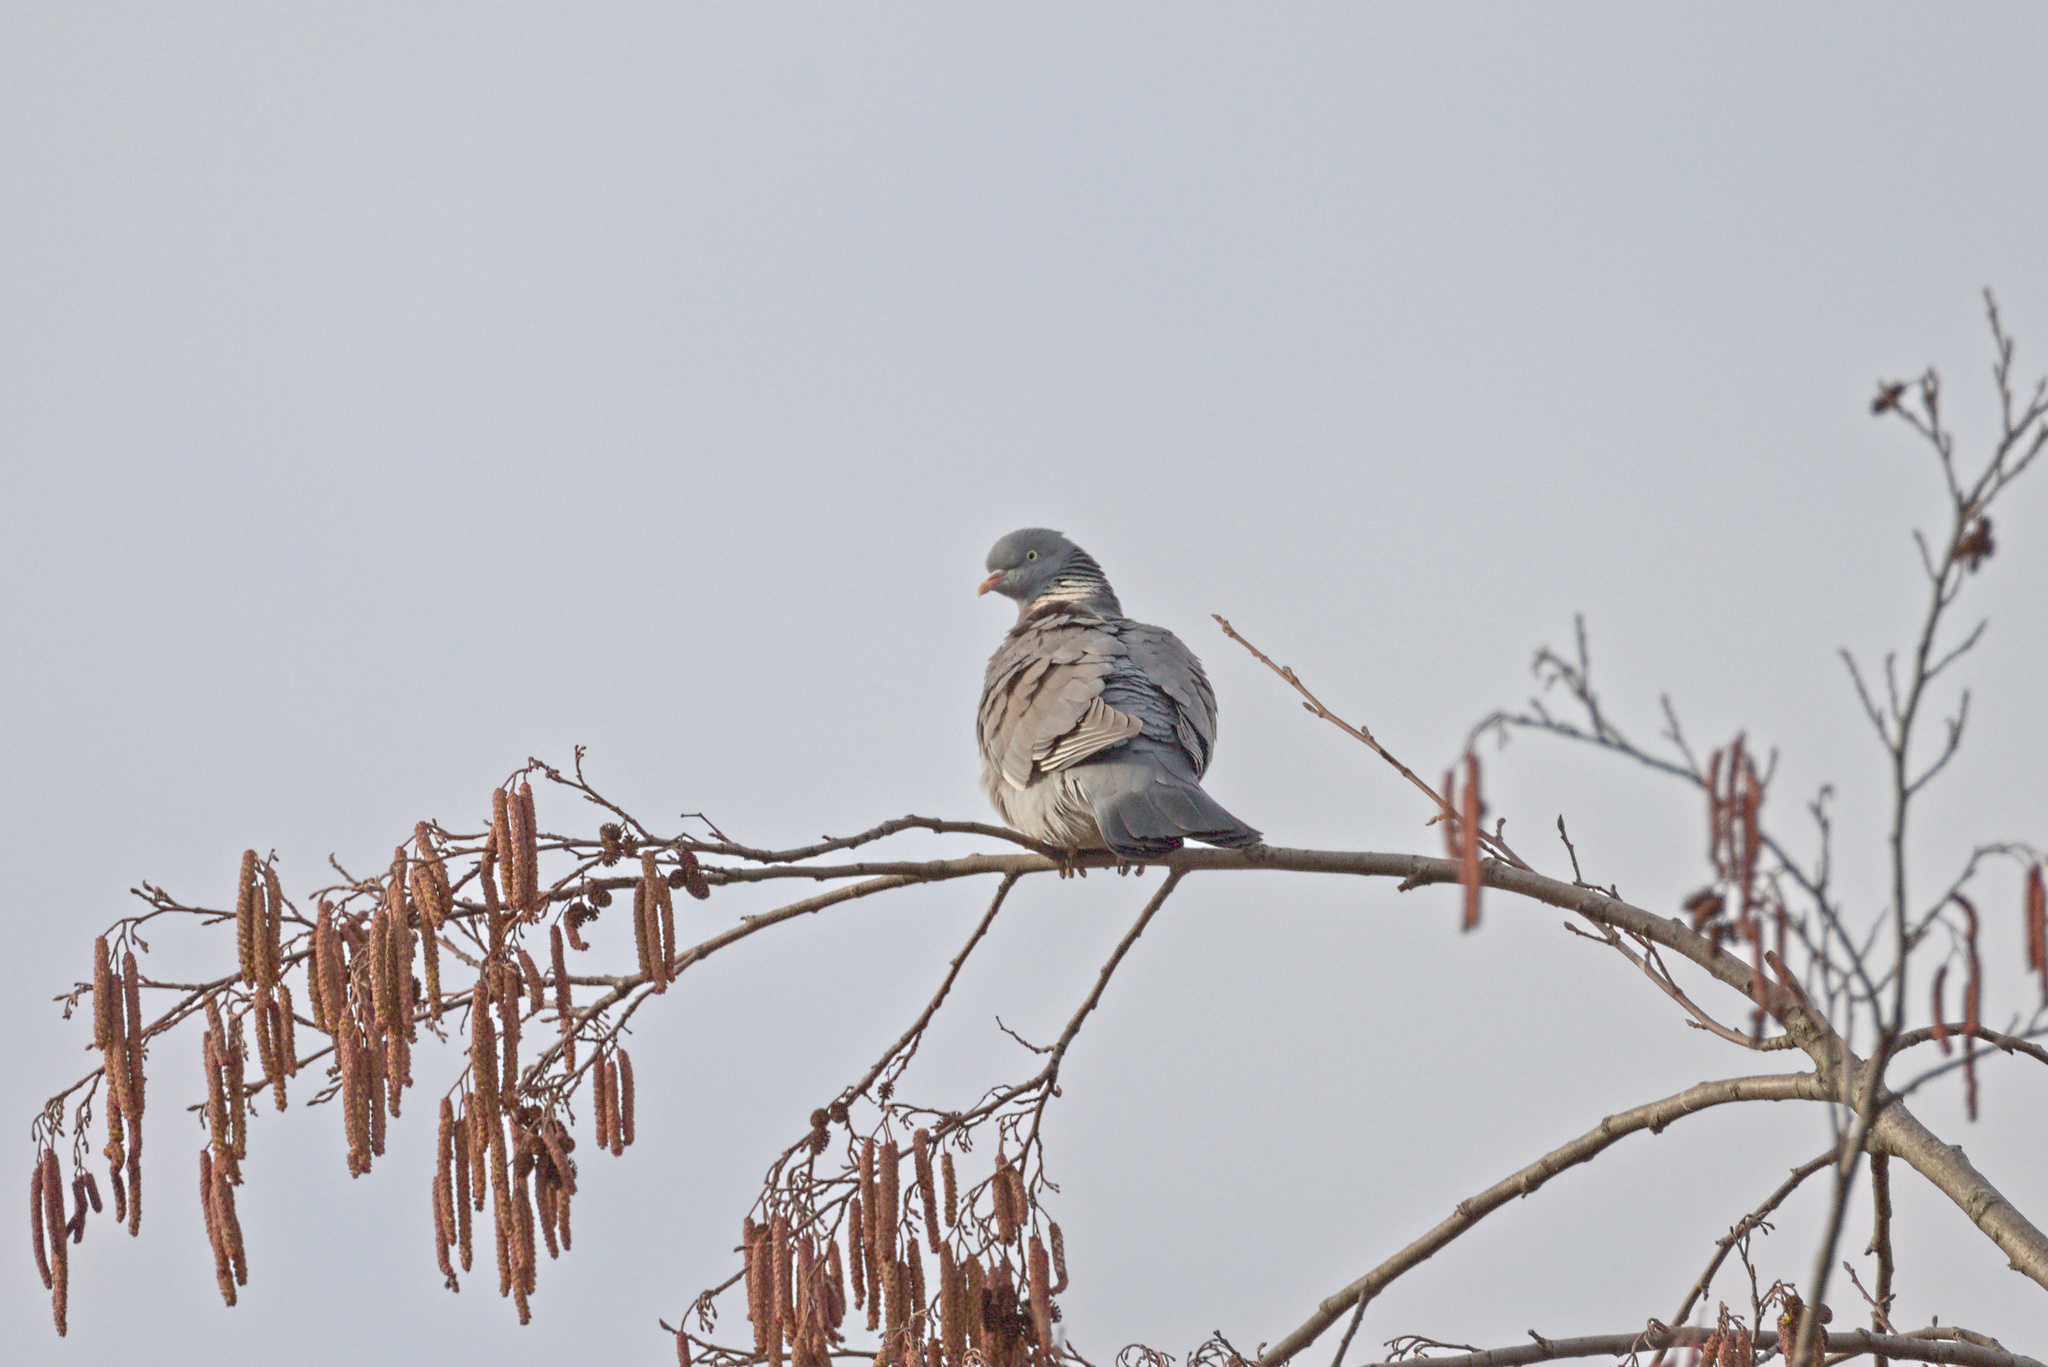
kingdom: Animalia
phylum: Chordata
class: Aves
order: Columbiformes
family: Columbidae
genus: Columba
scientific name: Columba palumbus
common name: Common wood pigeon
